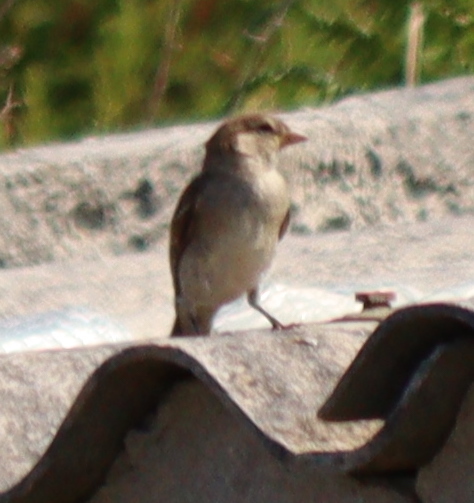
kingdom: Animalia
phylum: Chordata
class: Aves
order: Passeriformes
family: Passeridae
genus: Passer
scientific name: Passer domesticus
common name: House sparrow
